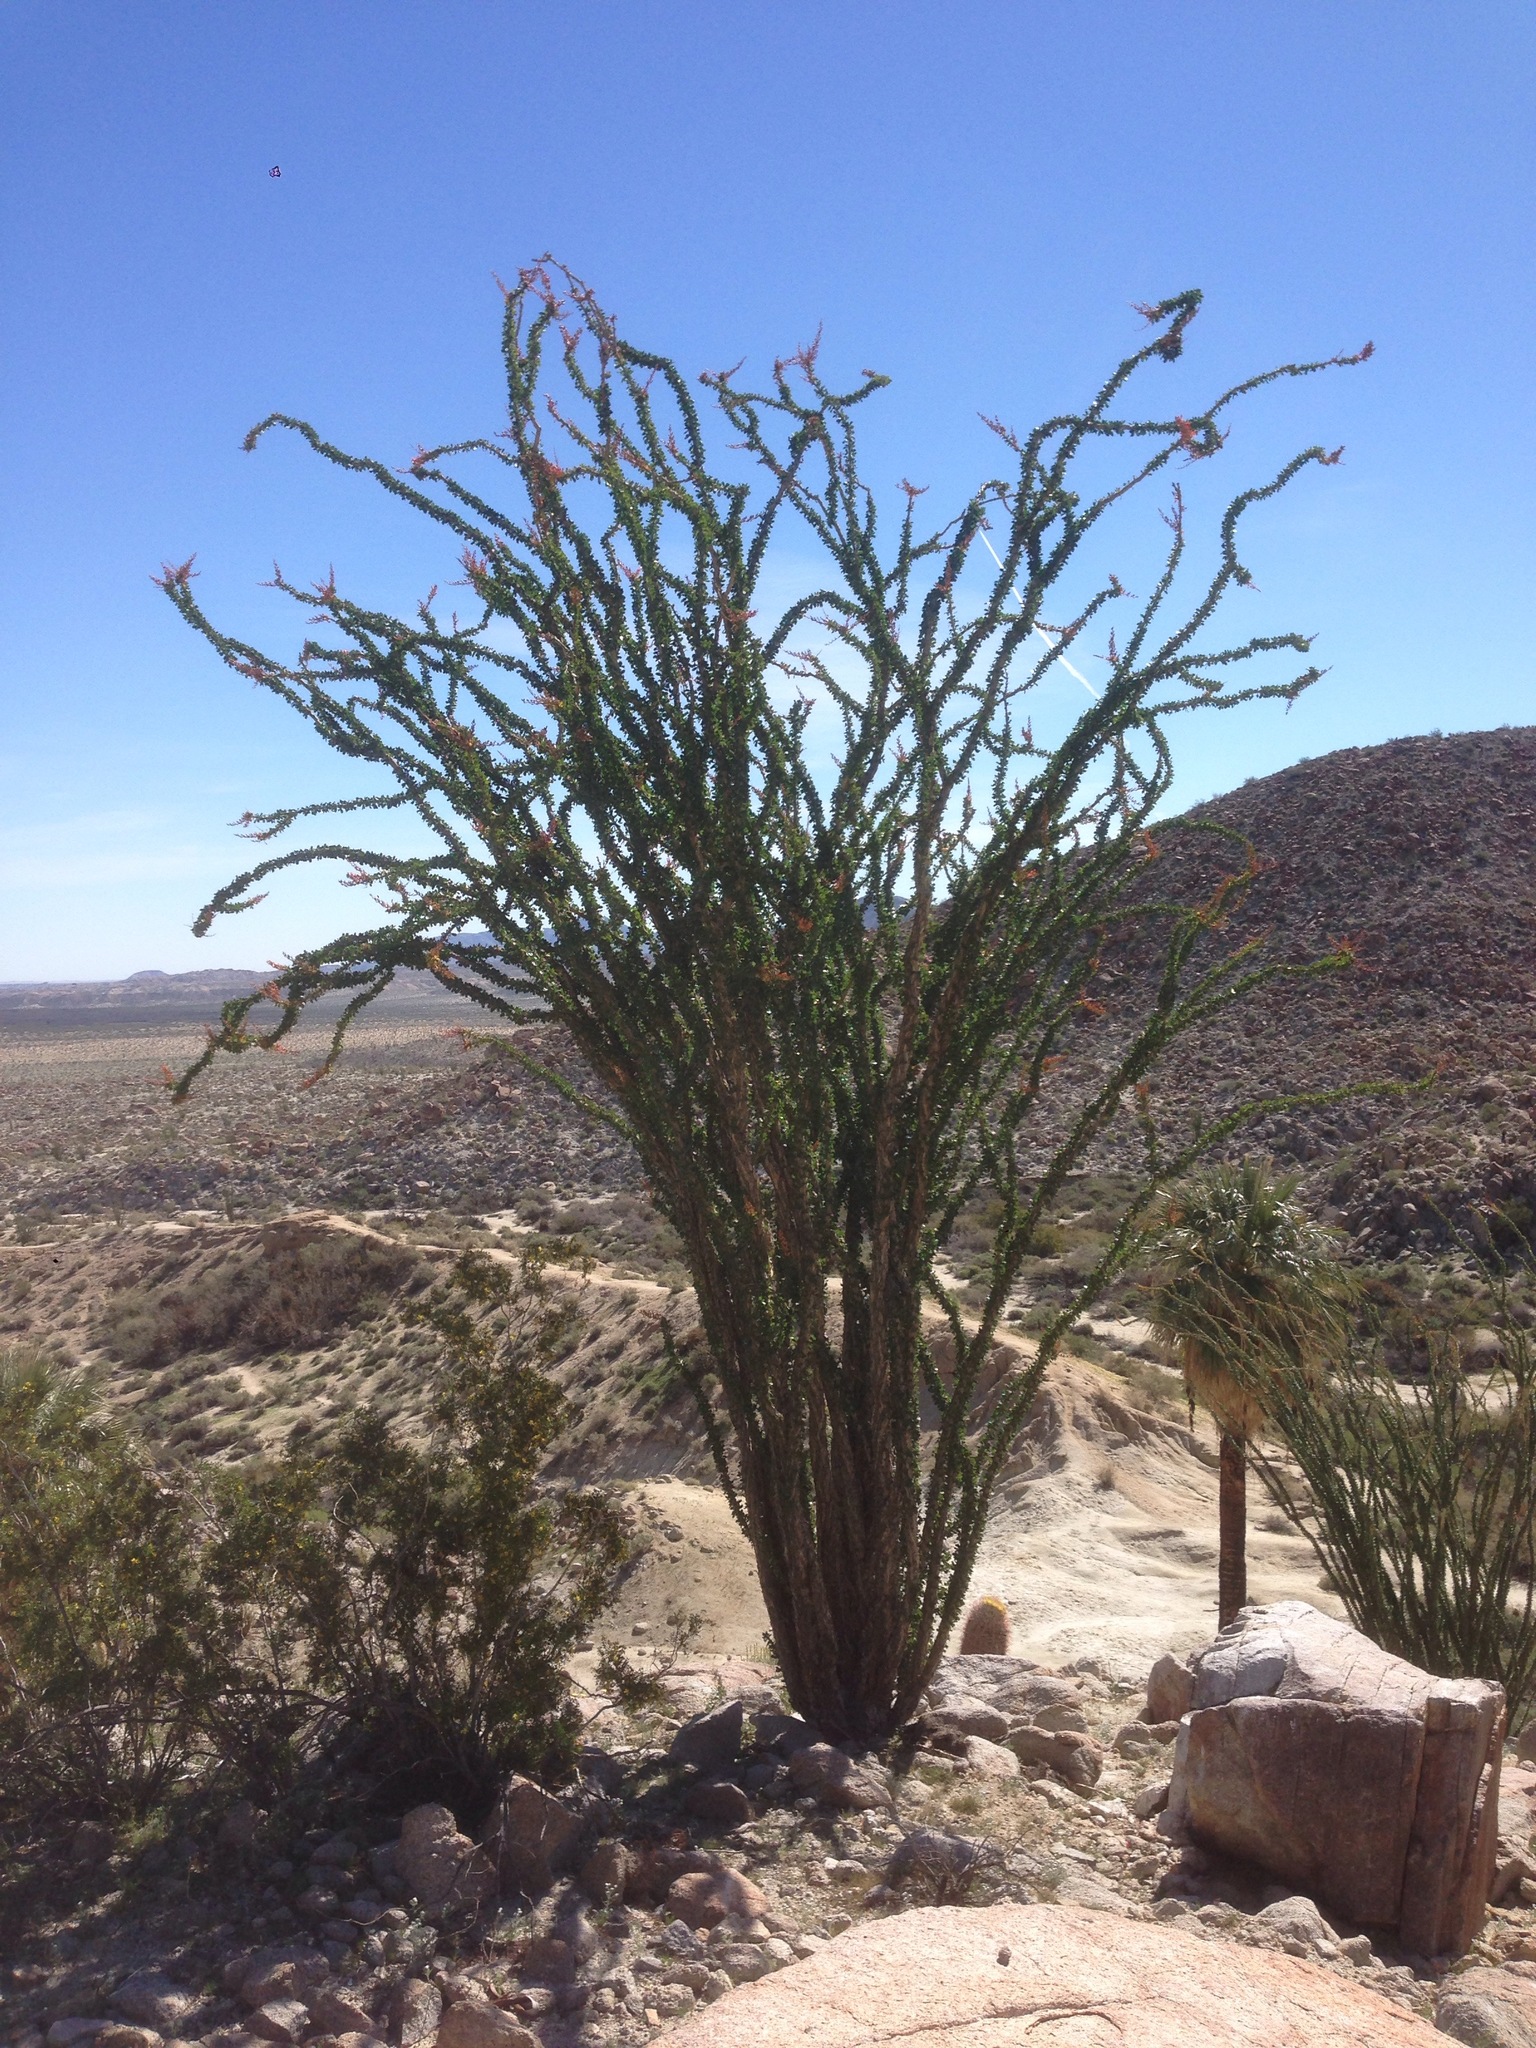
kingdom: Plantae
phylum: Tracheophyta
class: Magnoliopsida
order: Ericales
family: Fouquieriaceae
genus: Fouquieria
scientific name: Fouquieria splendens
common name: Vine-cactus
